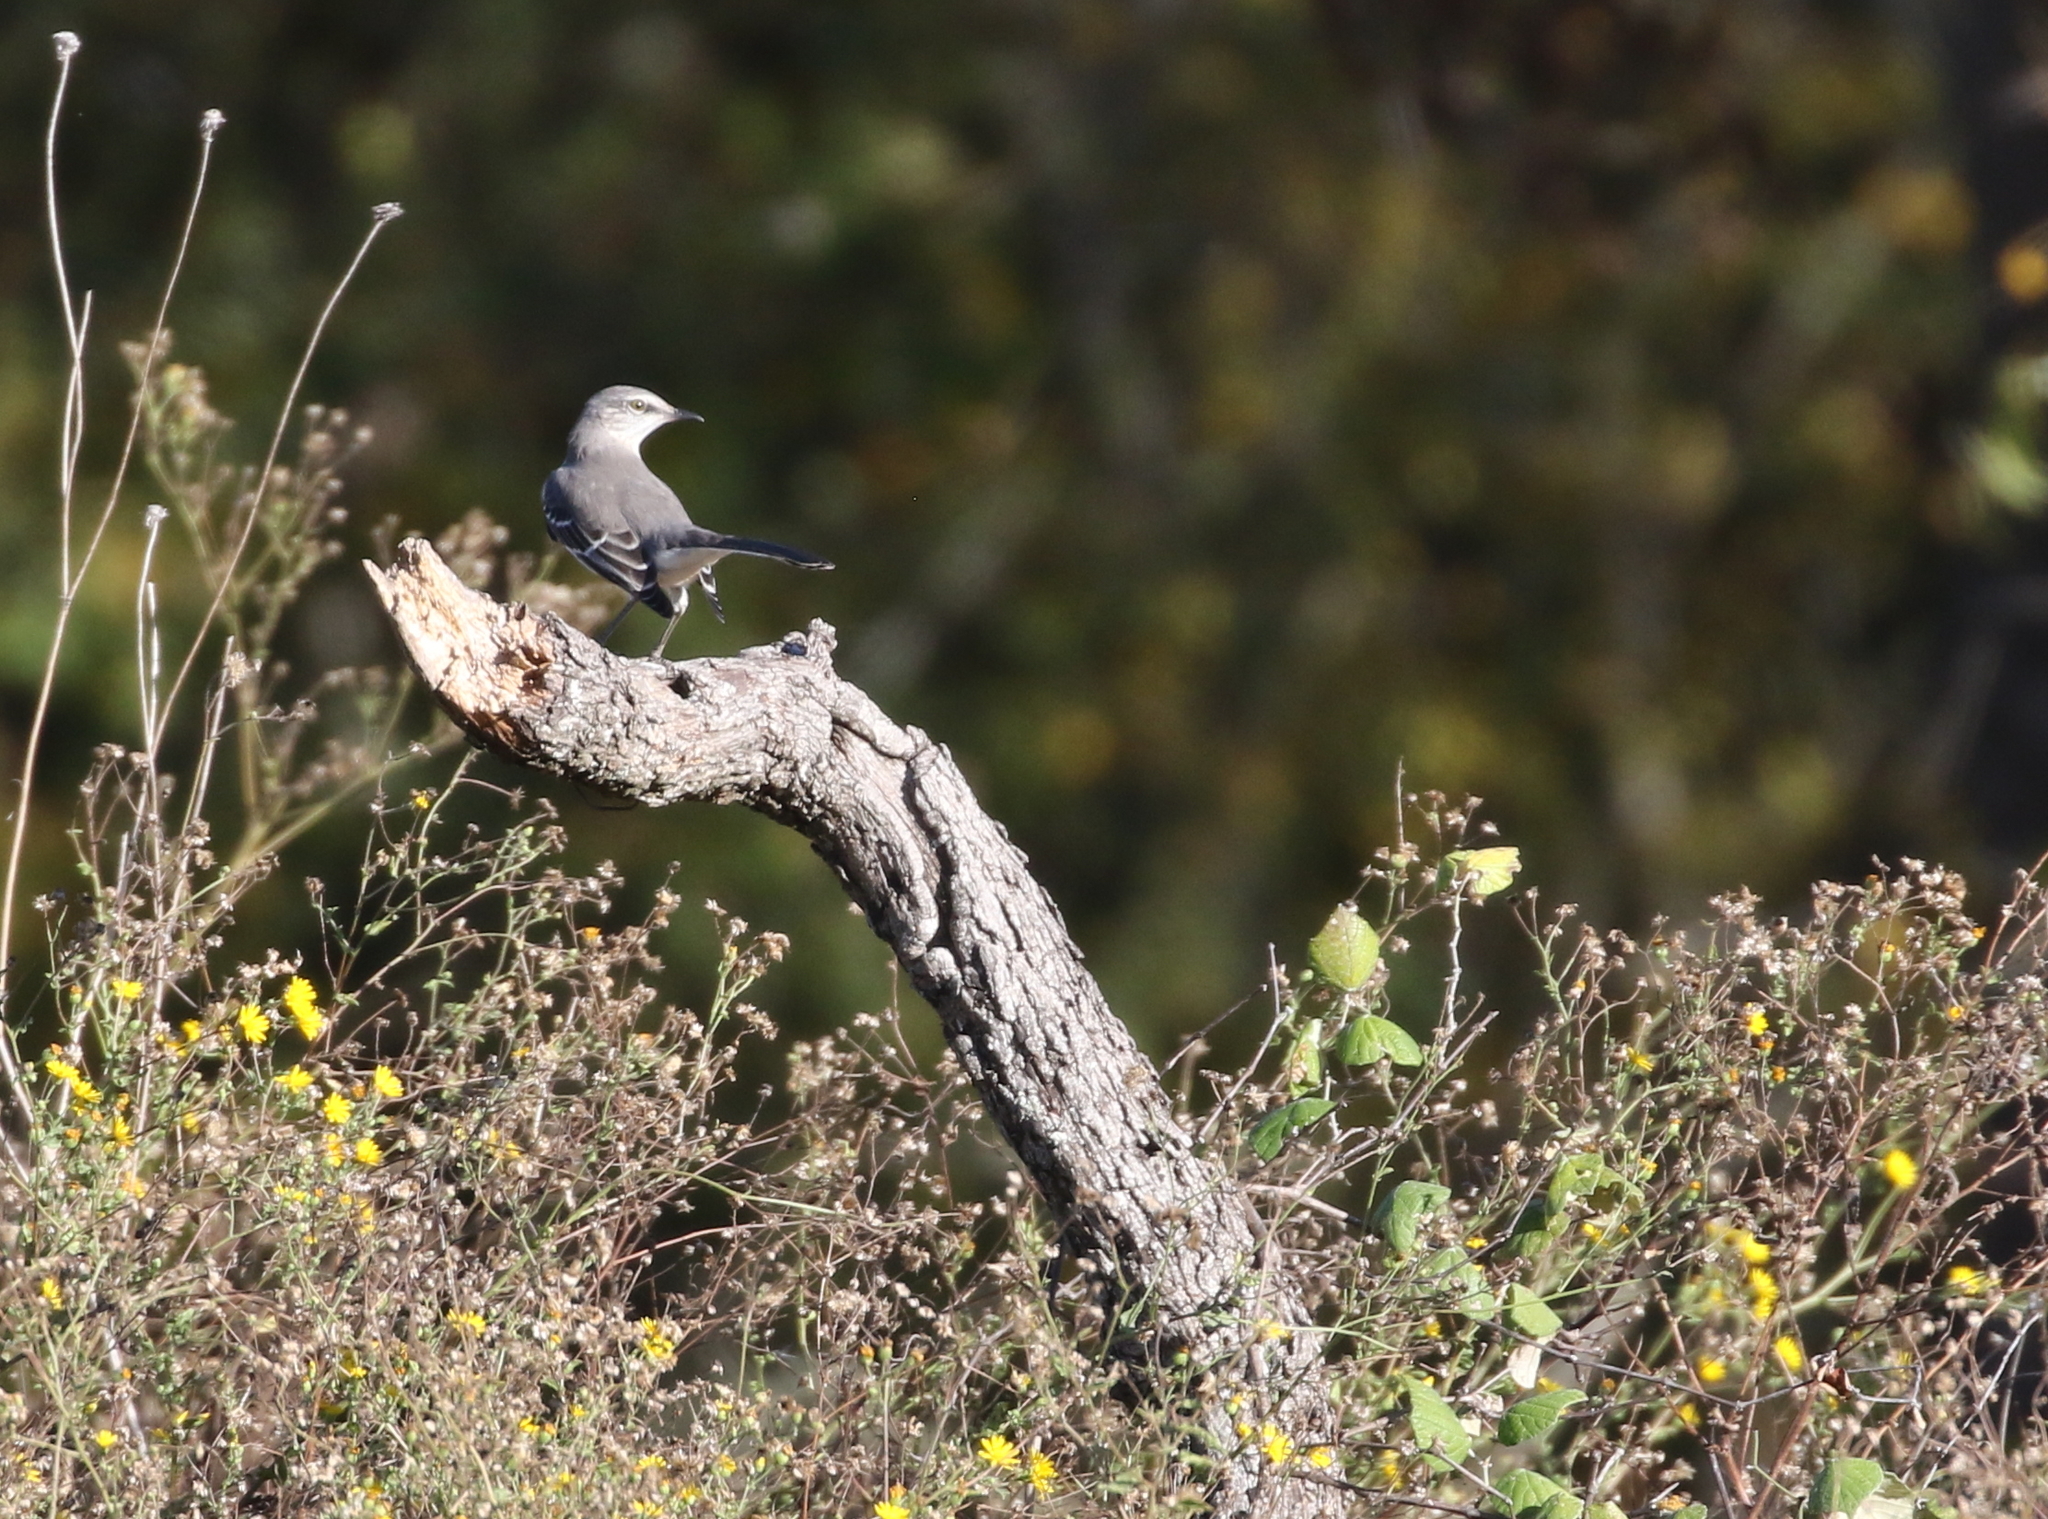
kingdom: Animalia
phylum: Chordata
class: Aves
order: Passeriformes
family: Mimidae
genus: Mimus
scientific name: Mimus polyglottos
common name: Northern mockingbird
